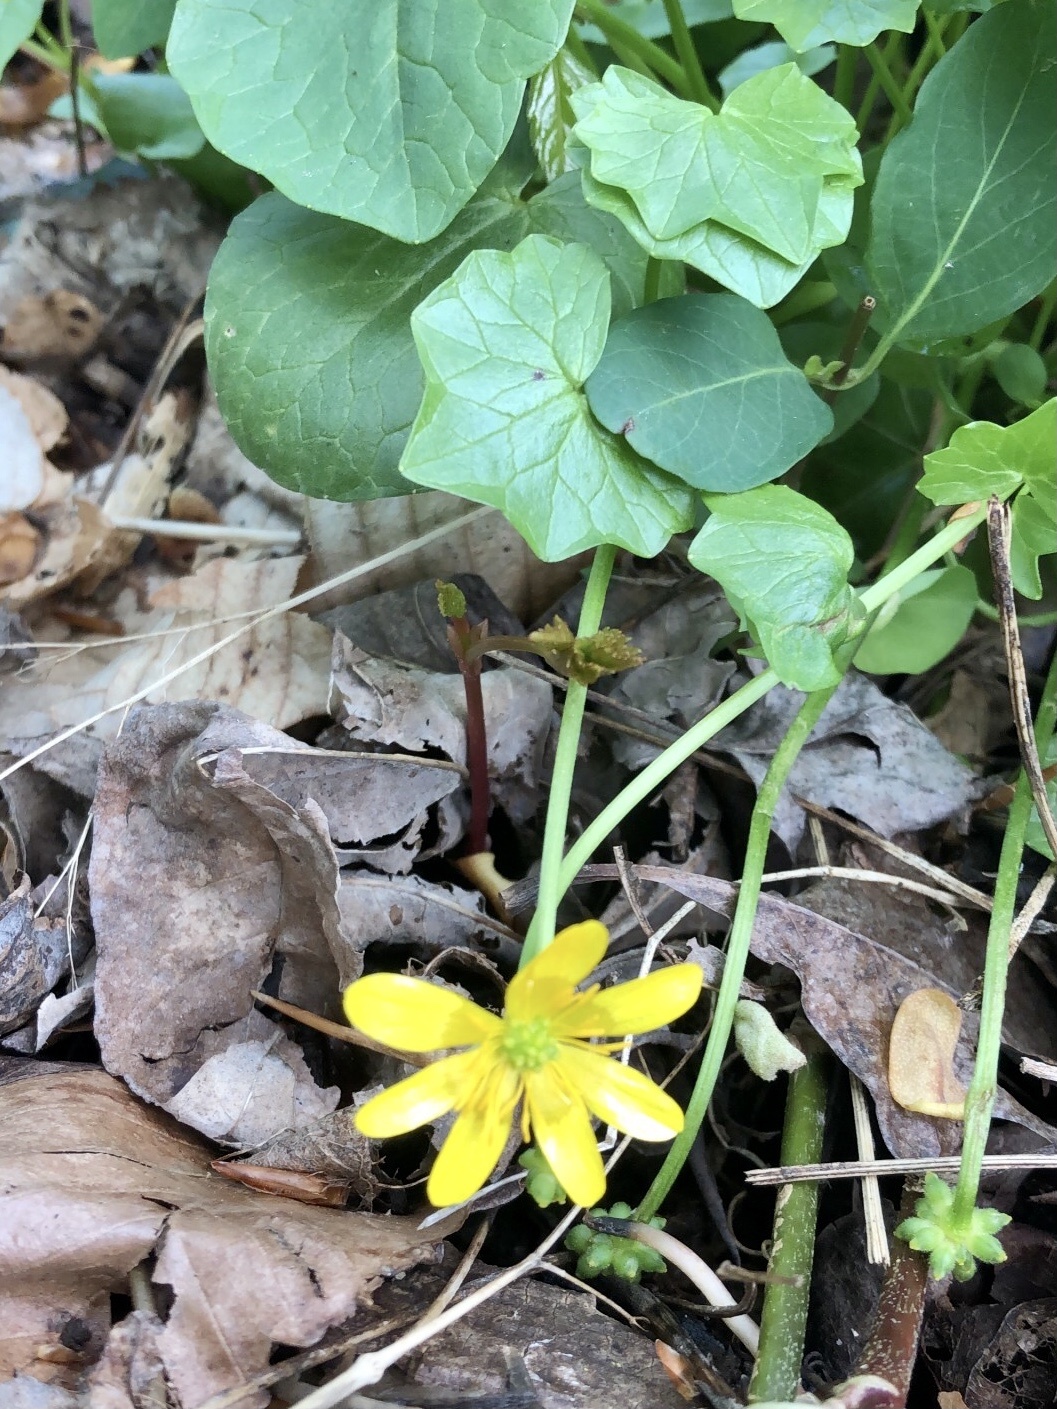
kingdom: Plantae
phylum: Tracheophyta
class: Magnoliopsida
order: Ranunculales
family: Ranunculaceae
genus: Ficaria
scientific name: Ficaria verna
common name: Lesser celandine
